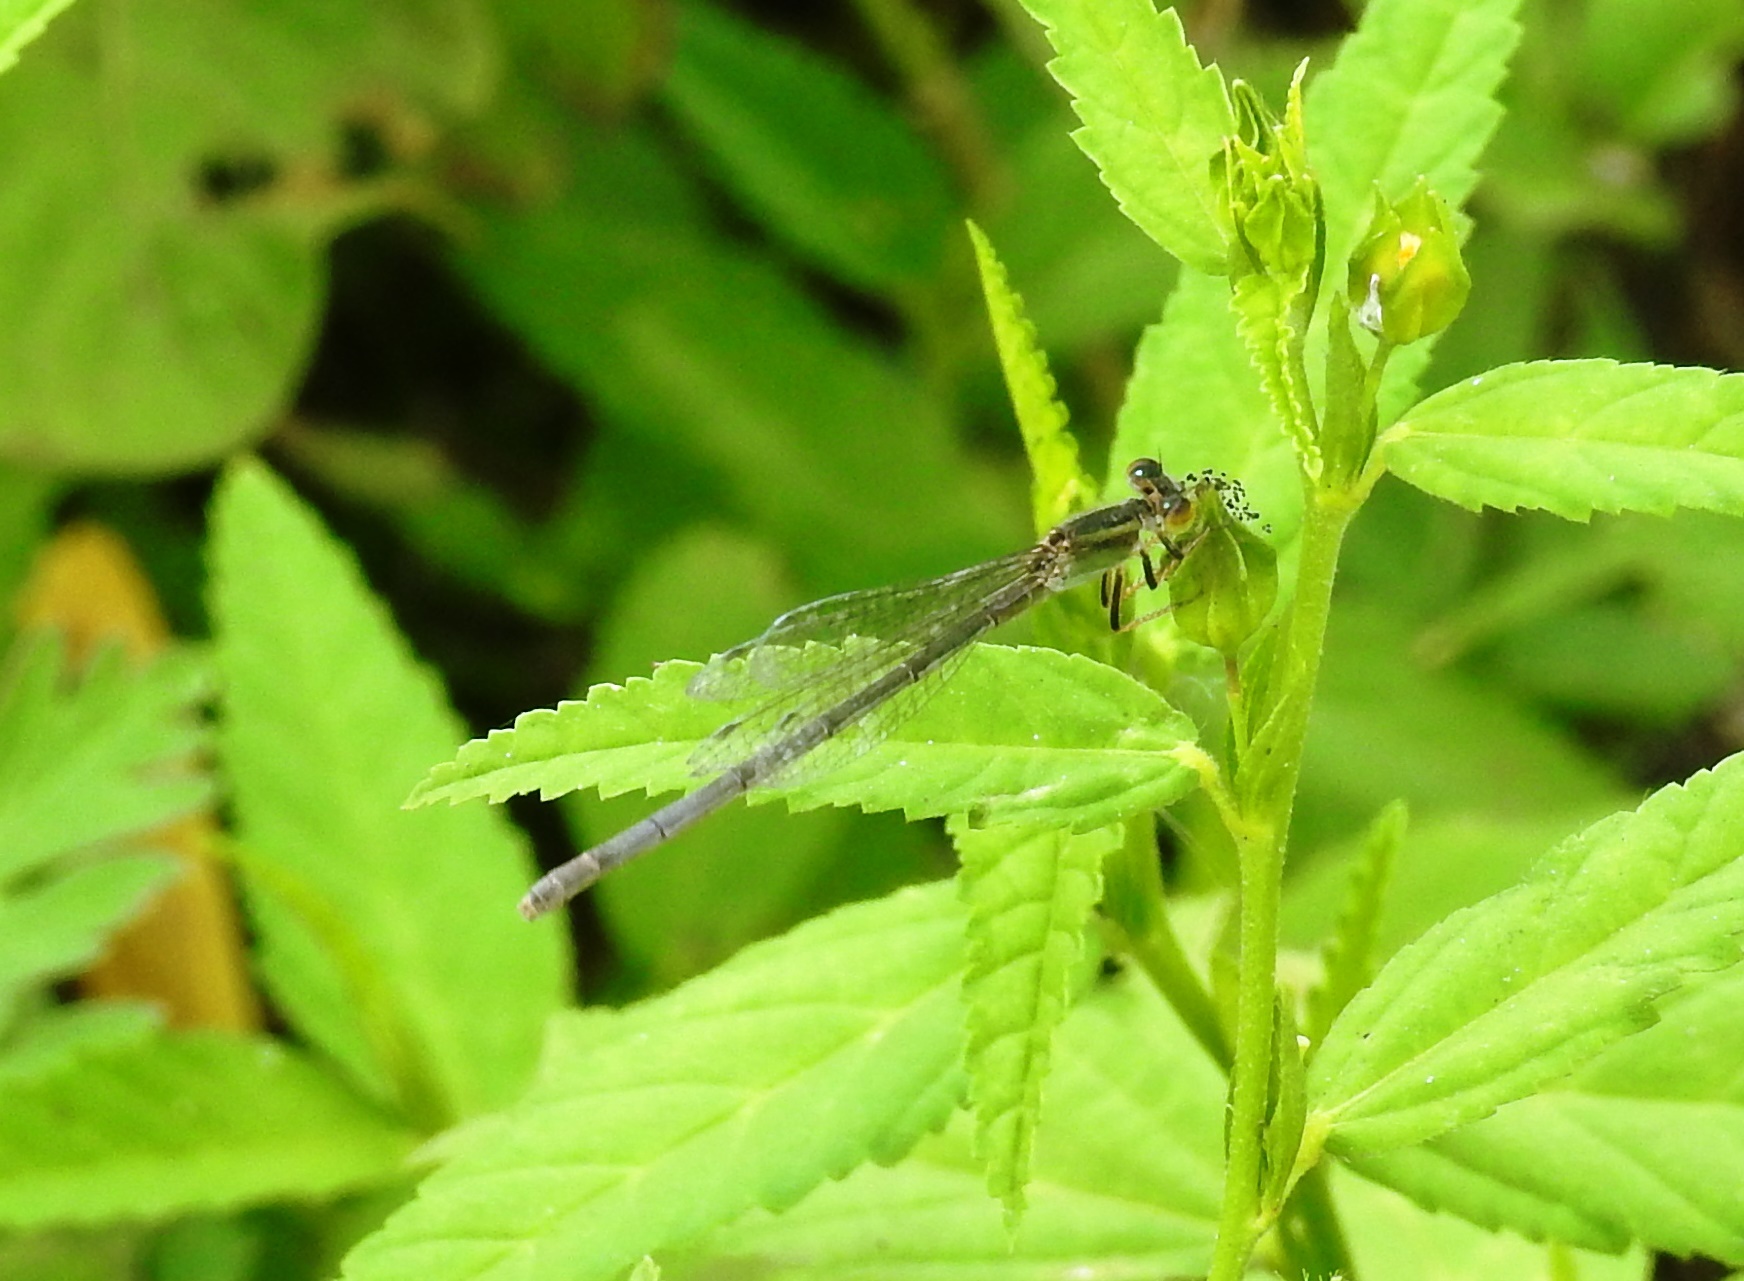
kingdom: Animalia
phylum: Arthropoda
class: Insecta
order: Odonata
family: Coenagrionidae
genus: Ischnura
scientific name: Ischnura senegalensis
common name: Tropical bluetail
